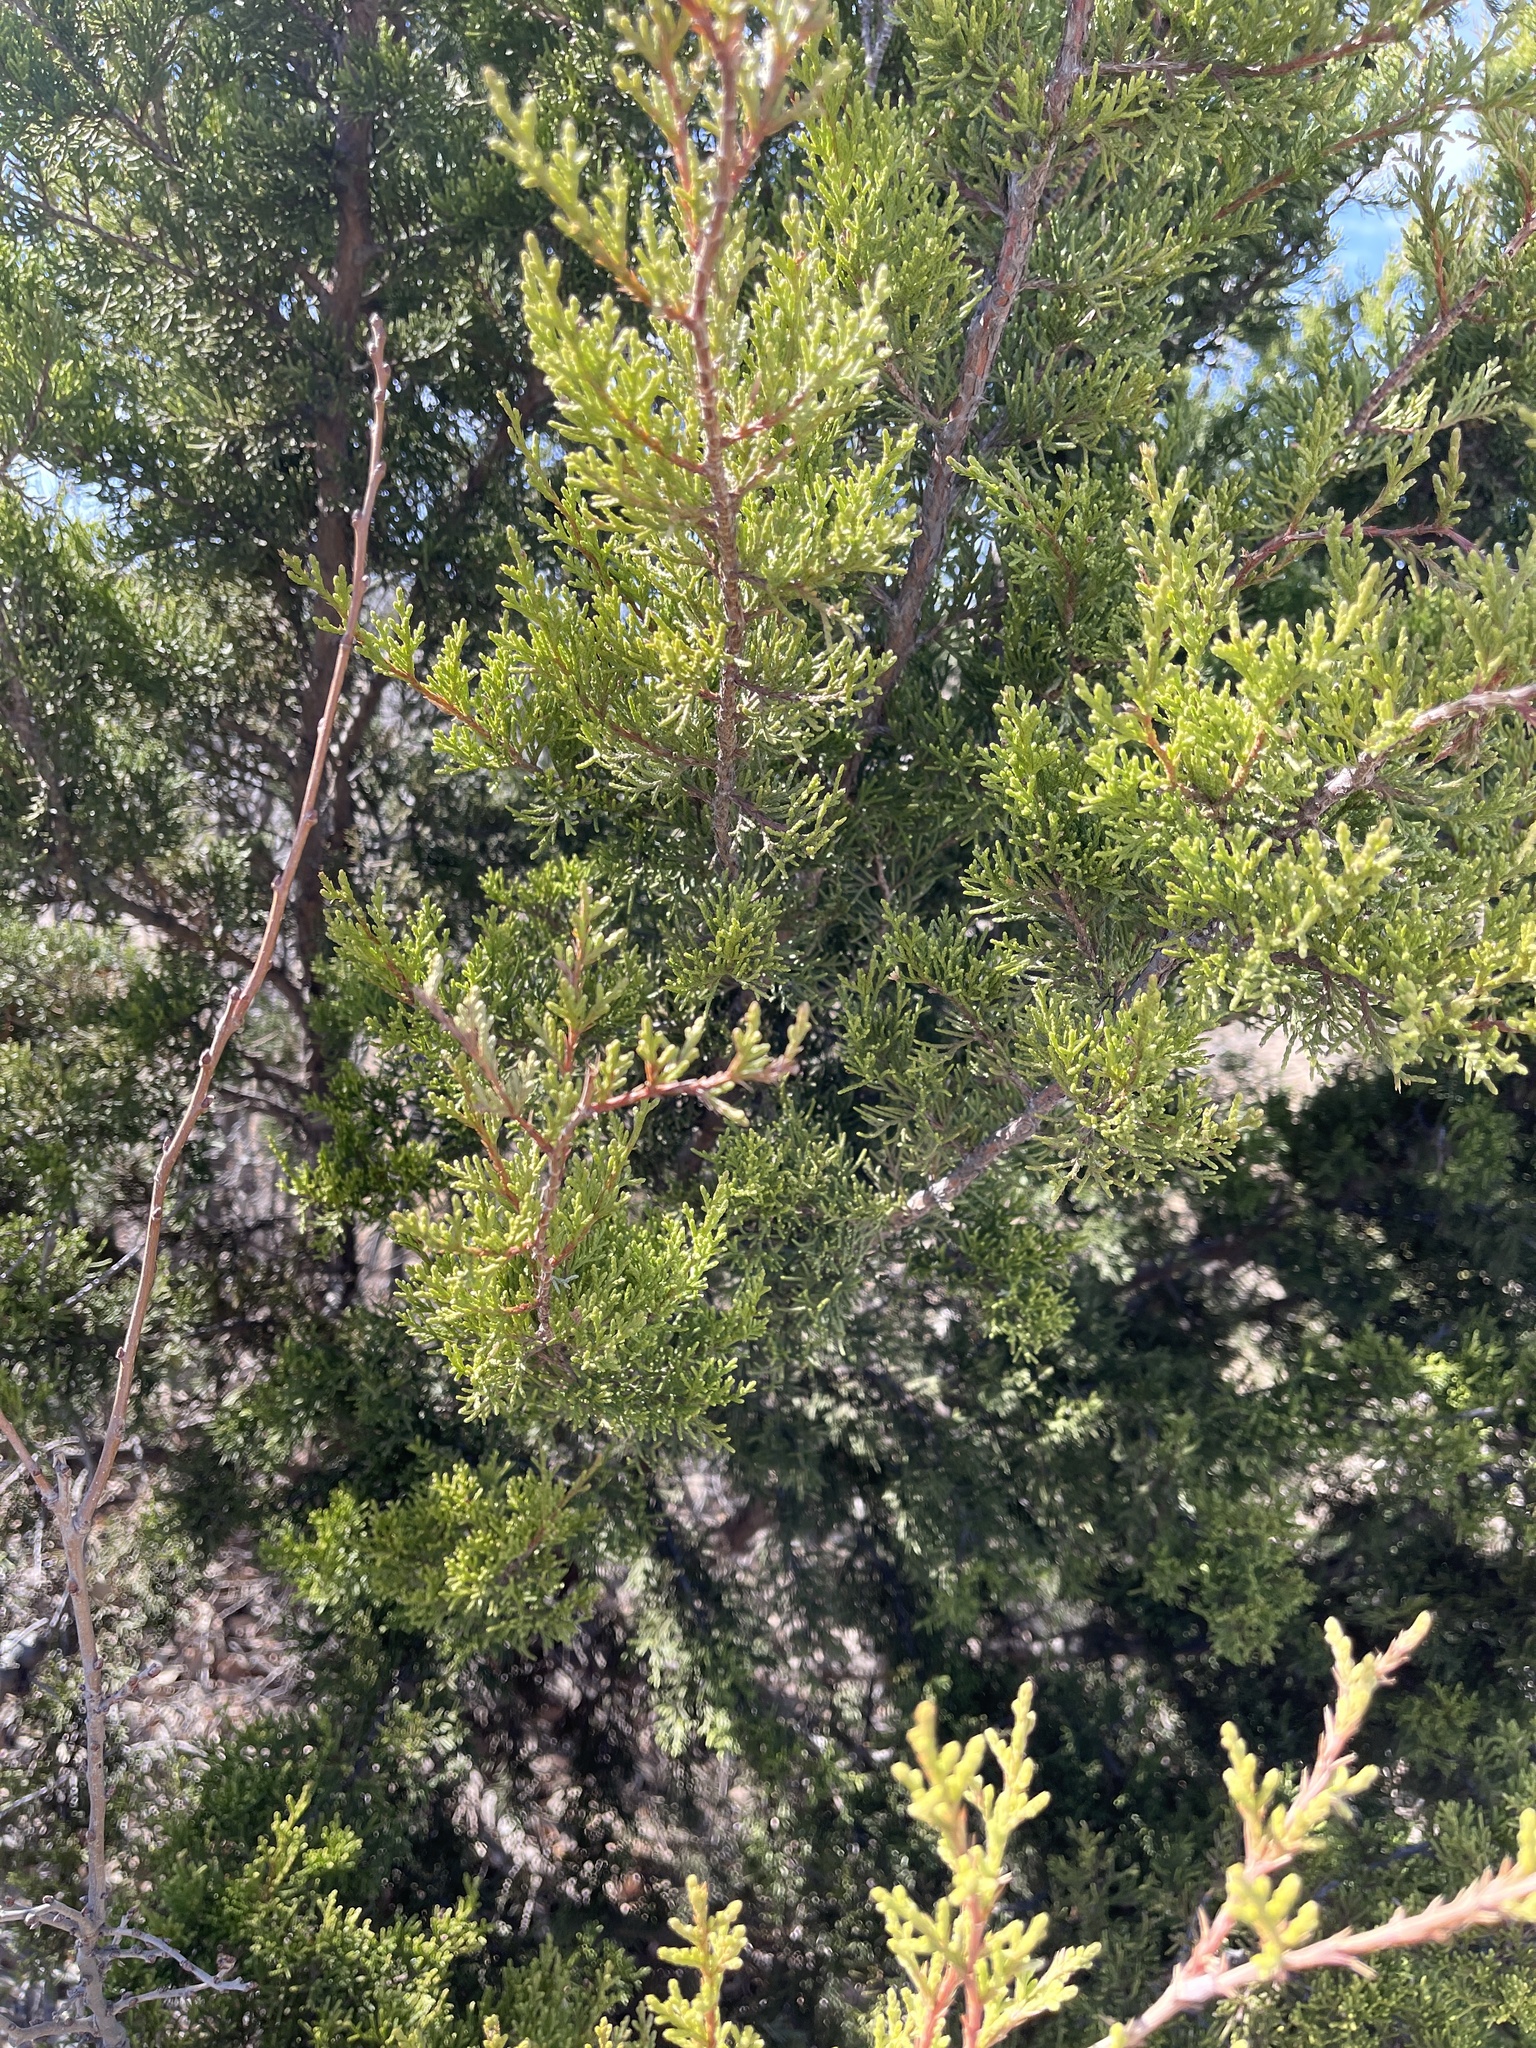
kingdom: Plantae
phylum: Tracheophyta
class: Pinopsida
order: Pinales
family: Cupressaceae
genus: Juniperus
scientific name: Juniperus ashei
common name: Mexican juniper
